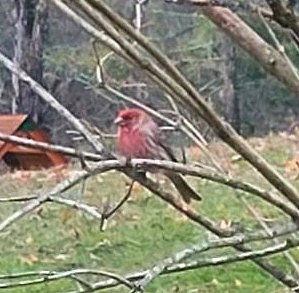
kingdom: Animalia
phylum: Chordata
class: Aves
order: Passeriformes
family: Fringillidae
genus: Haemorhous
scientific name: Haemorhous mexicanus
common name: House finch
